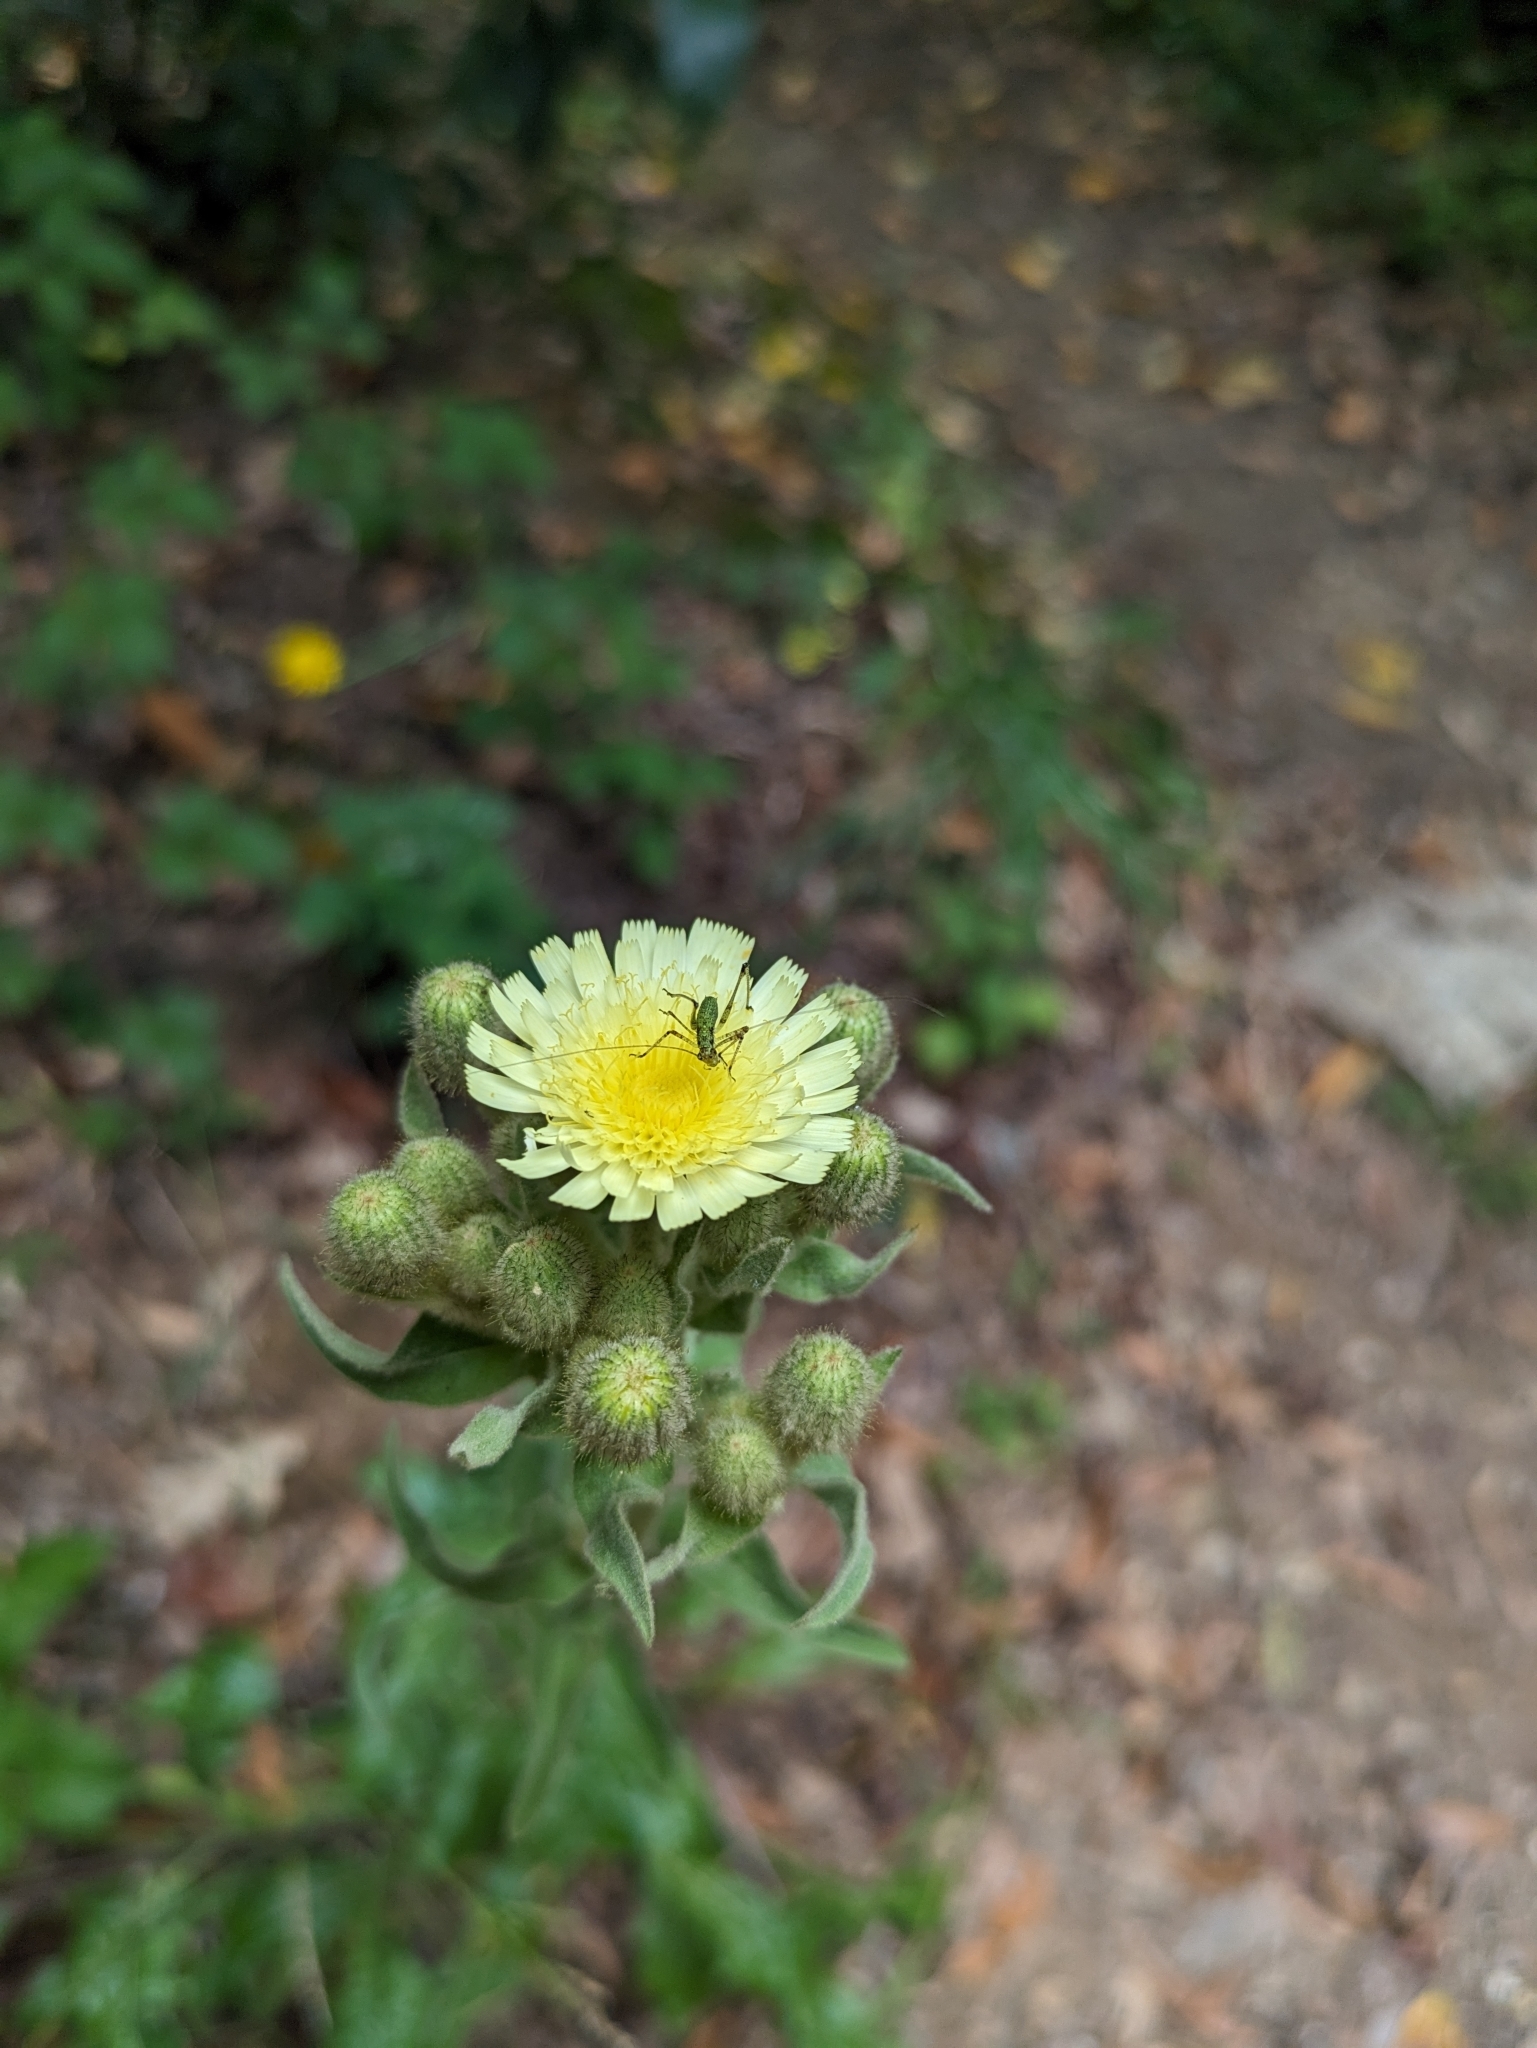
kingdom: Plantae
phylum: Tracheophyta
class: Magnoliopsida
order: Asterales
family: Asteraceae
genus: Andryala
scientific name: Andryala integrifolia
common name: Common andryala
